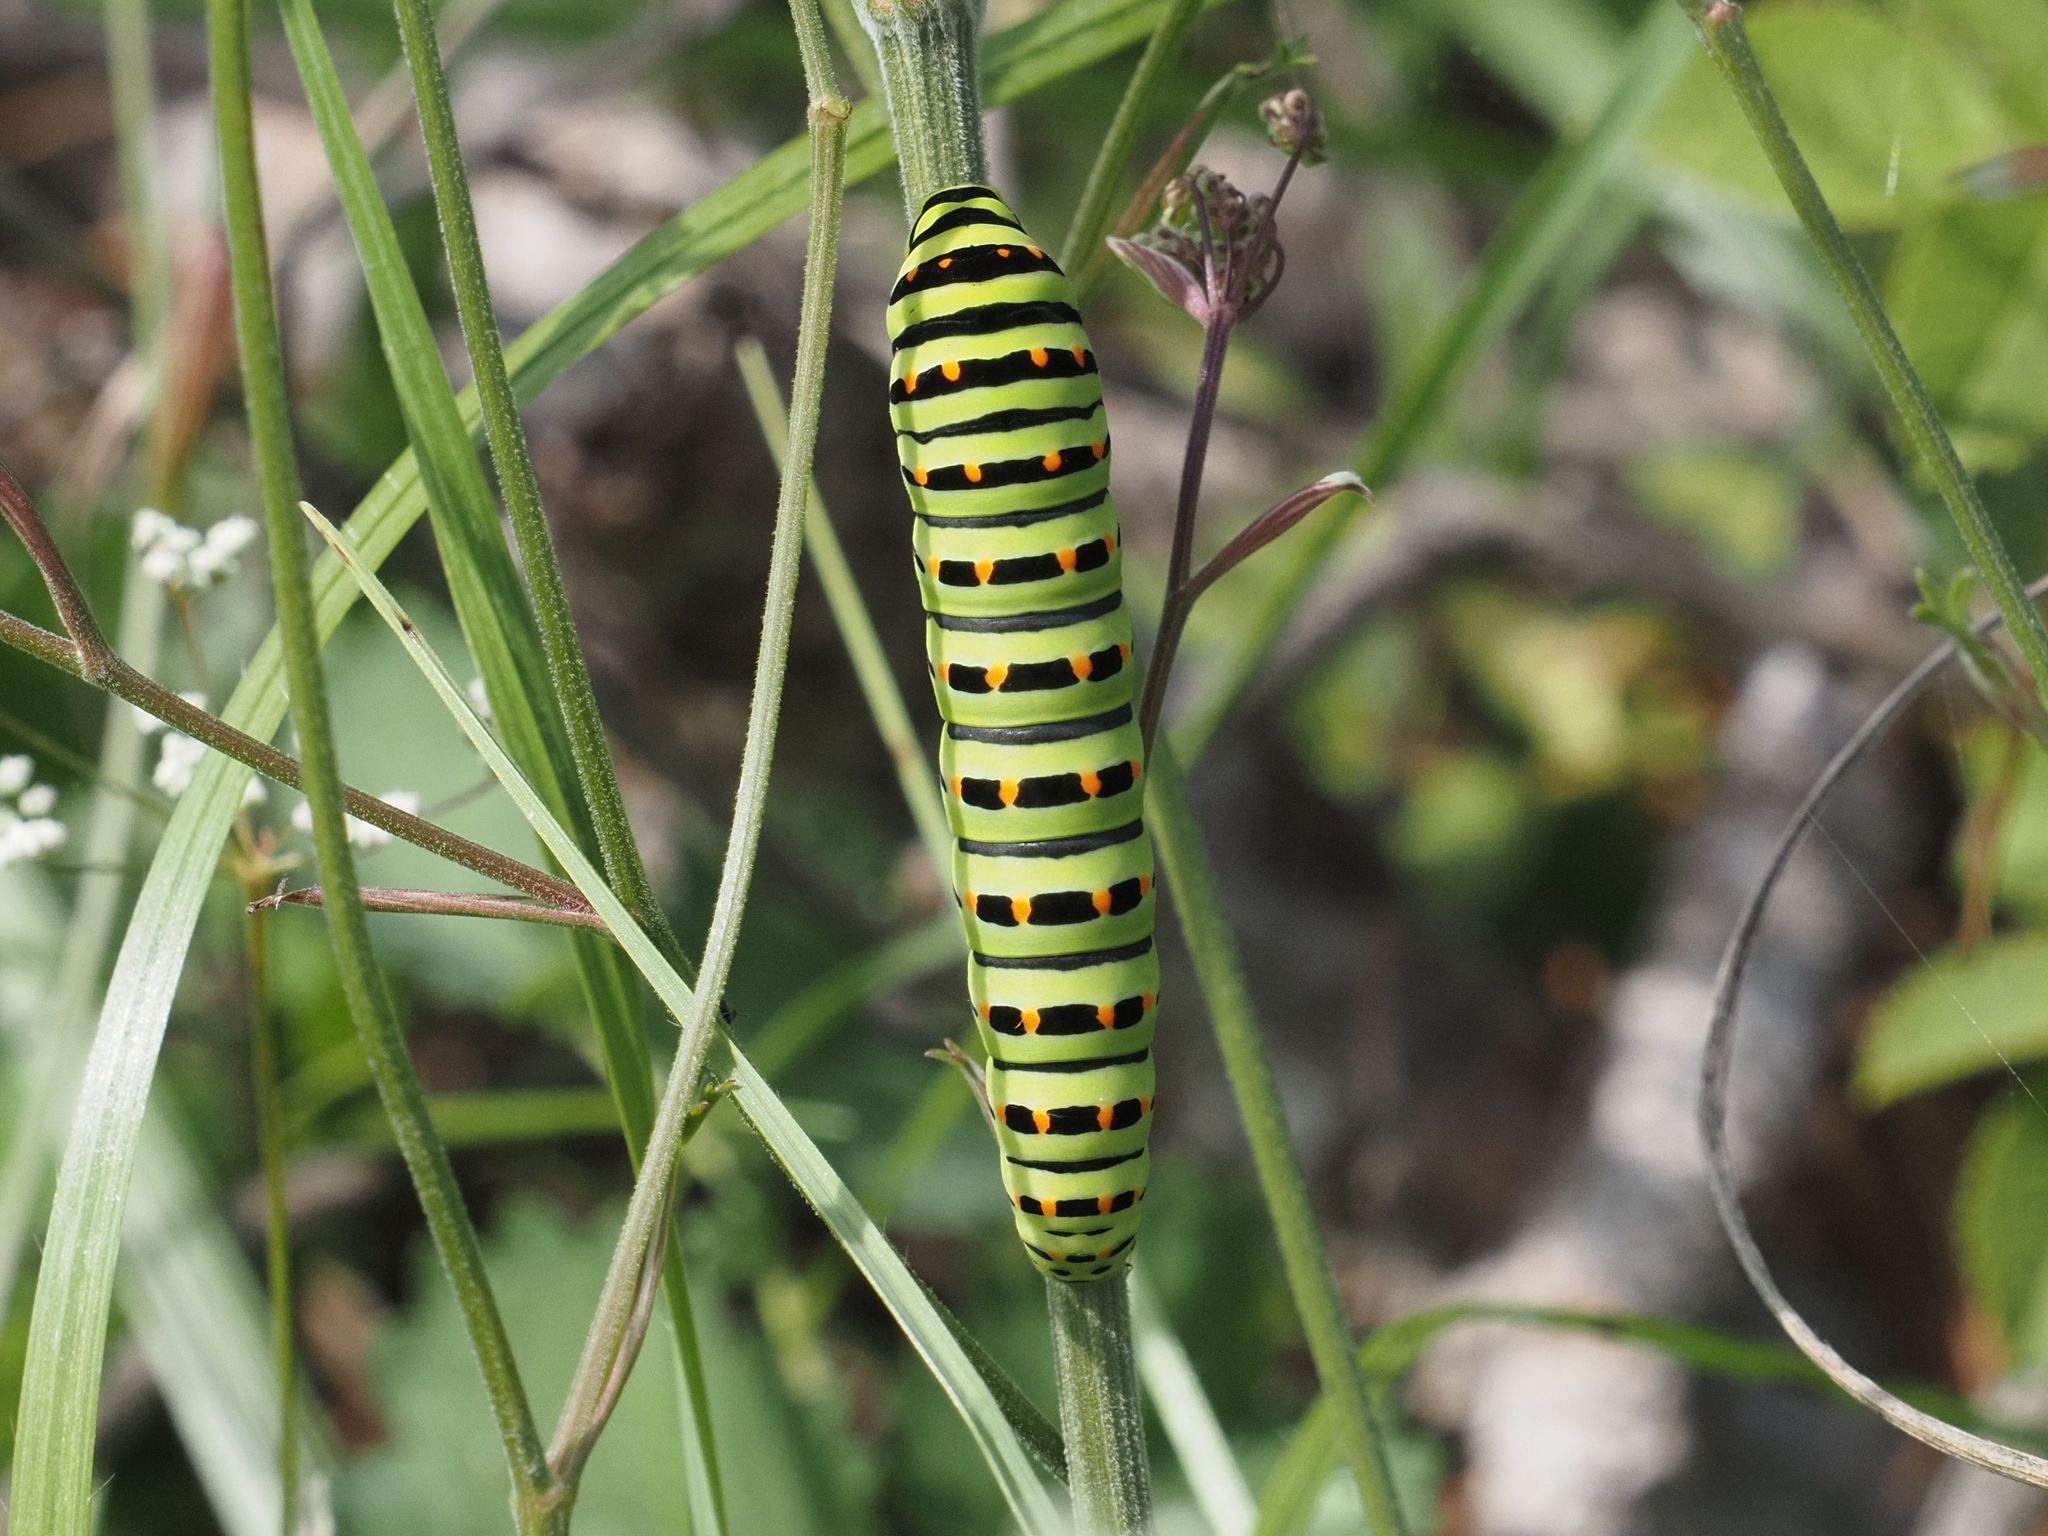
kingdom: Animalia
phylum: Arthropoda
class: Insecta
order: Lepidoptera
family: Papilionidae
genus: Papilio
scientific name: Papilio machaon
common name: Swallowtail
